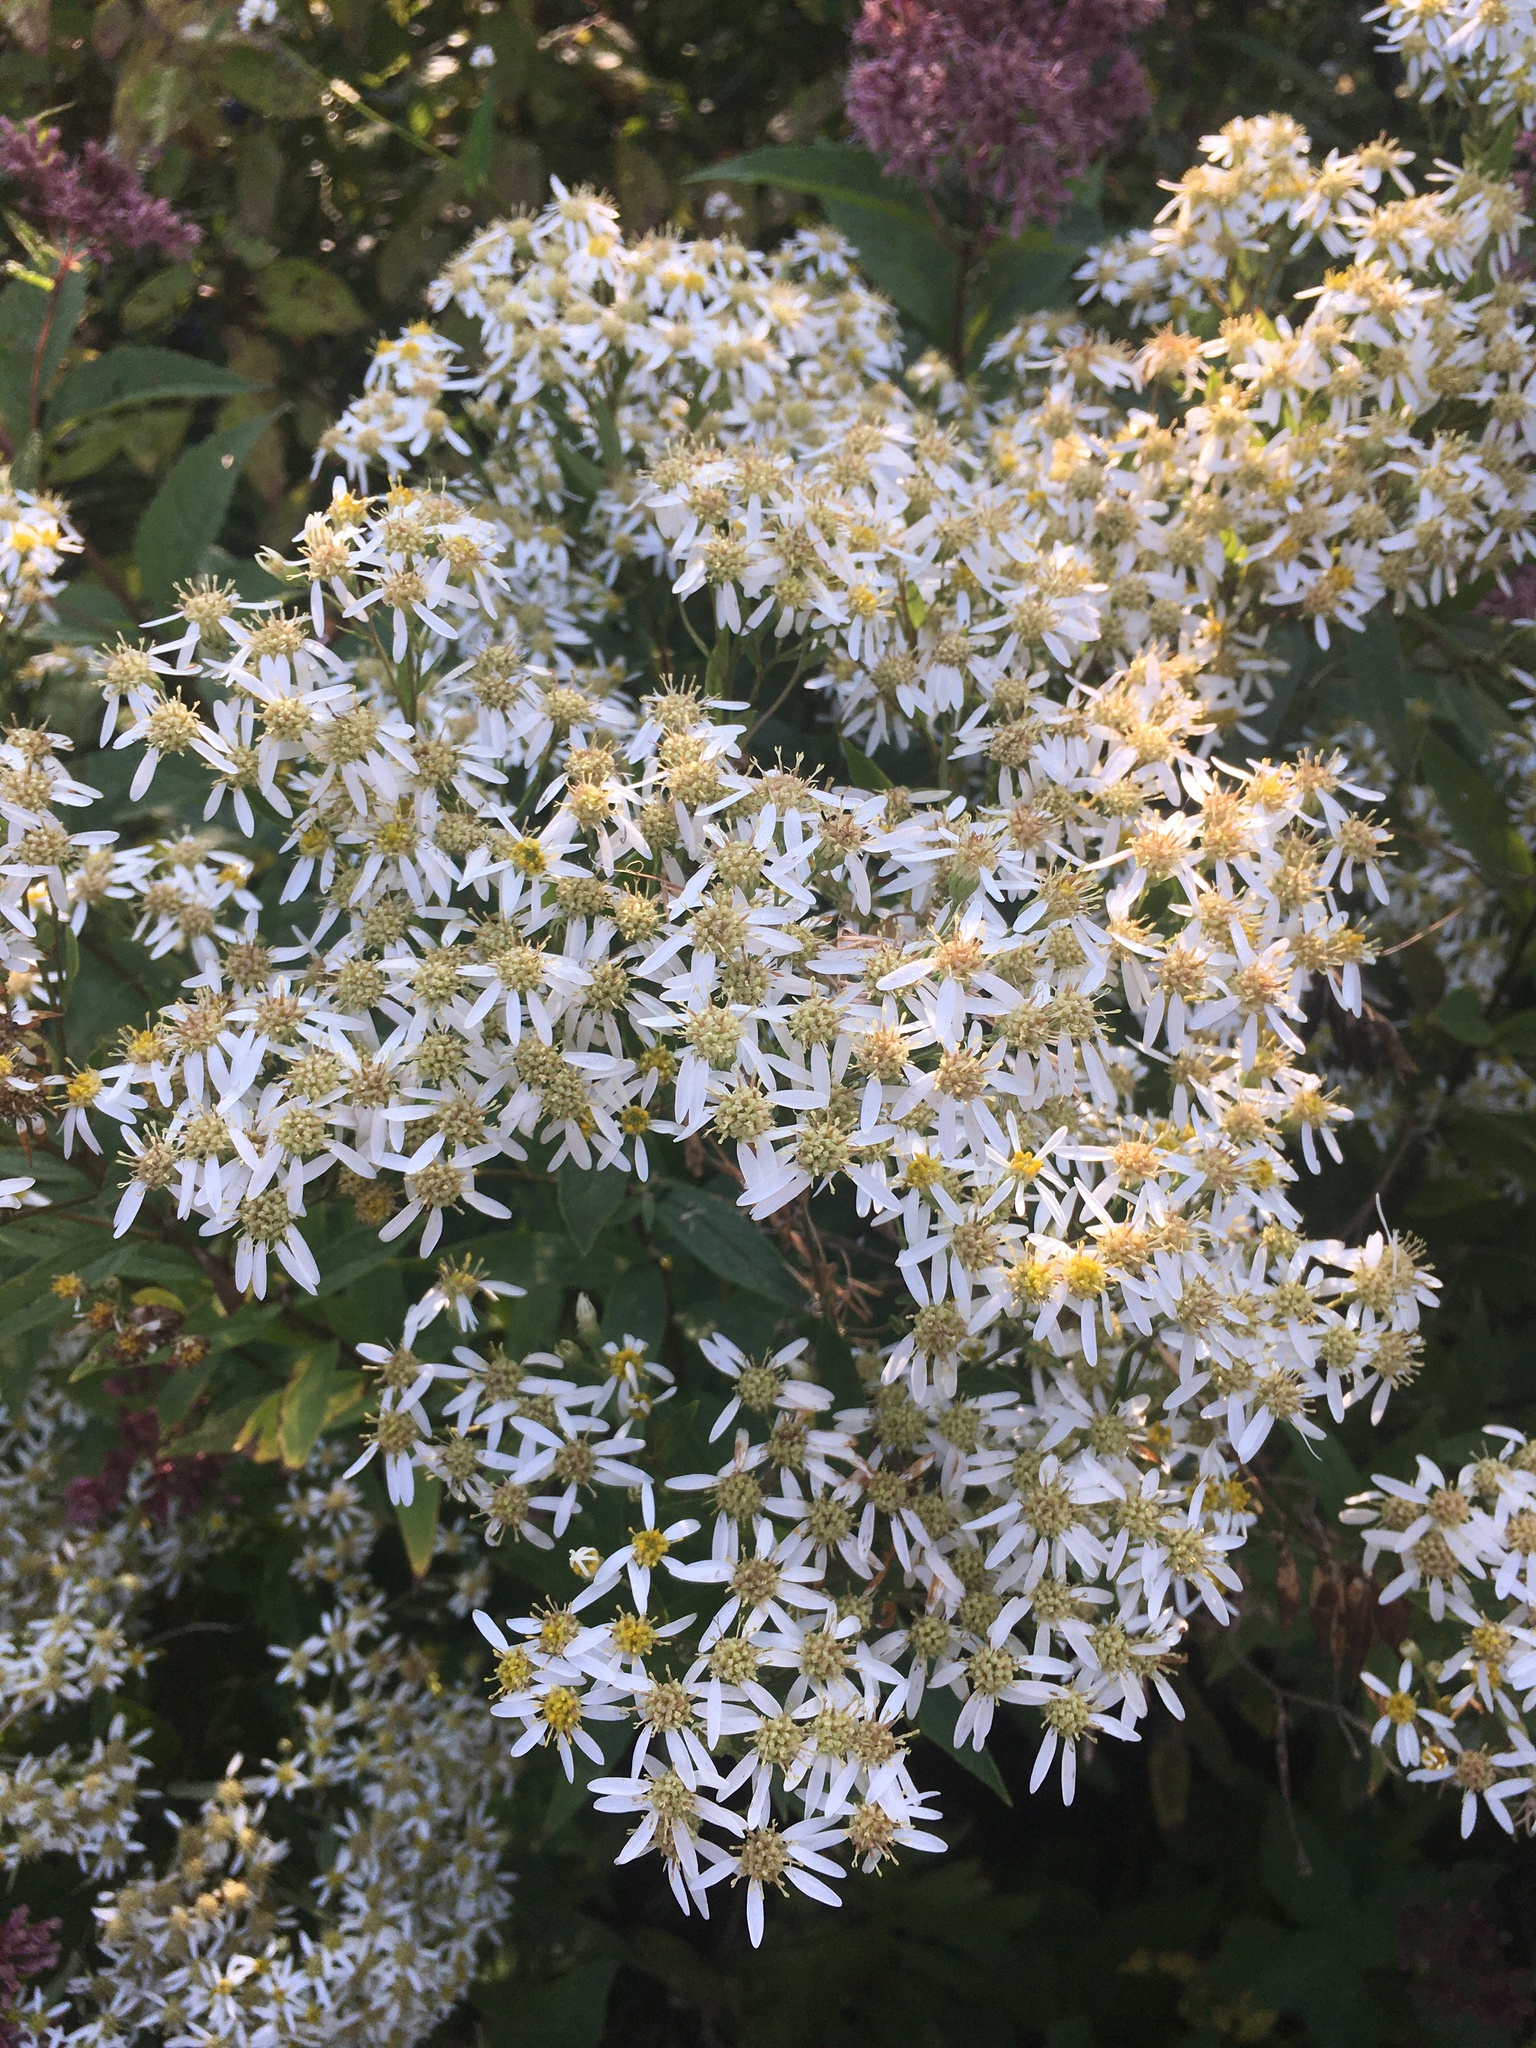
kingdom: Plantae
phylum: Tracheophyta
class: Magnoliopsida
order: Asterales
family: Asteraceae
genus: Doellingeria
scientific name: Doellingeria umbellata
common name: Flat-top white aster
